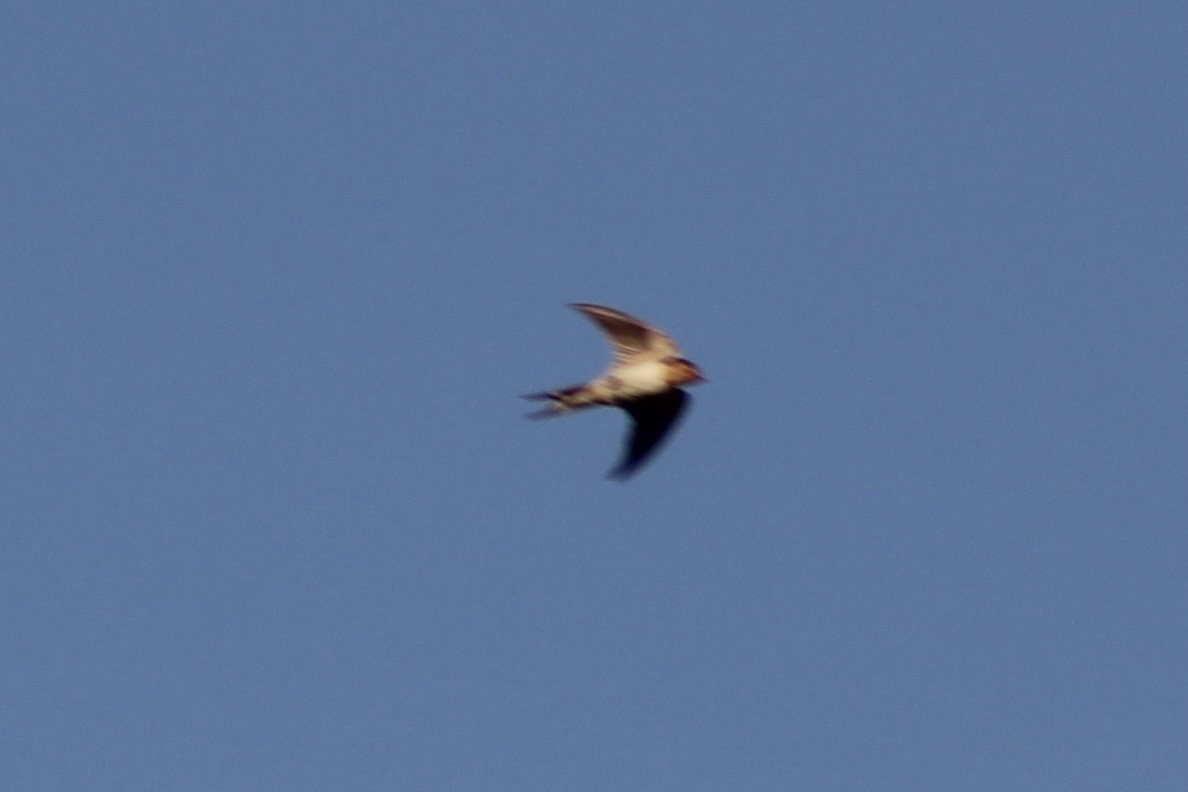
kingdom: Animalia
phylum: Chordata
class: Aves
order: Passeriformes
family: Hirundinidae
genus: Hirundo
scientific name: Hirundo rustica
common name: Barn swallow
